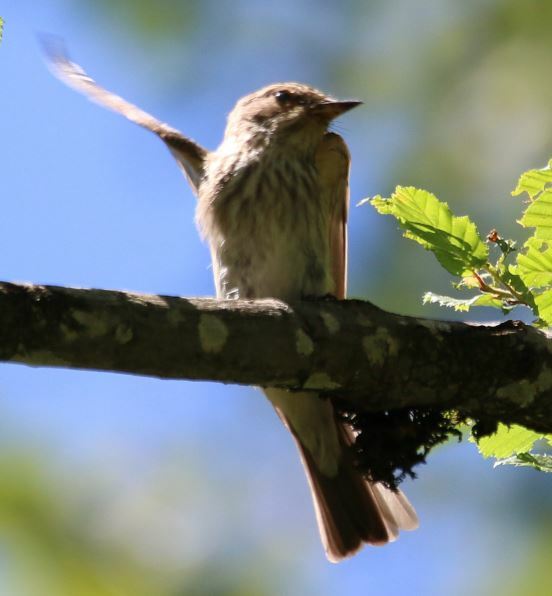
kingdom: Animalia
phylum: Chordata
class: Aves
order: Passeriformes
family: Muscicapidae
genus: Muscicapa
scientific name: Muscicapa striata
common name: Spotted flycatcher
